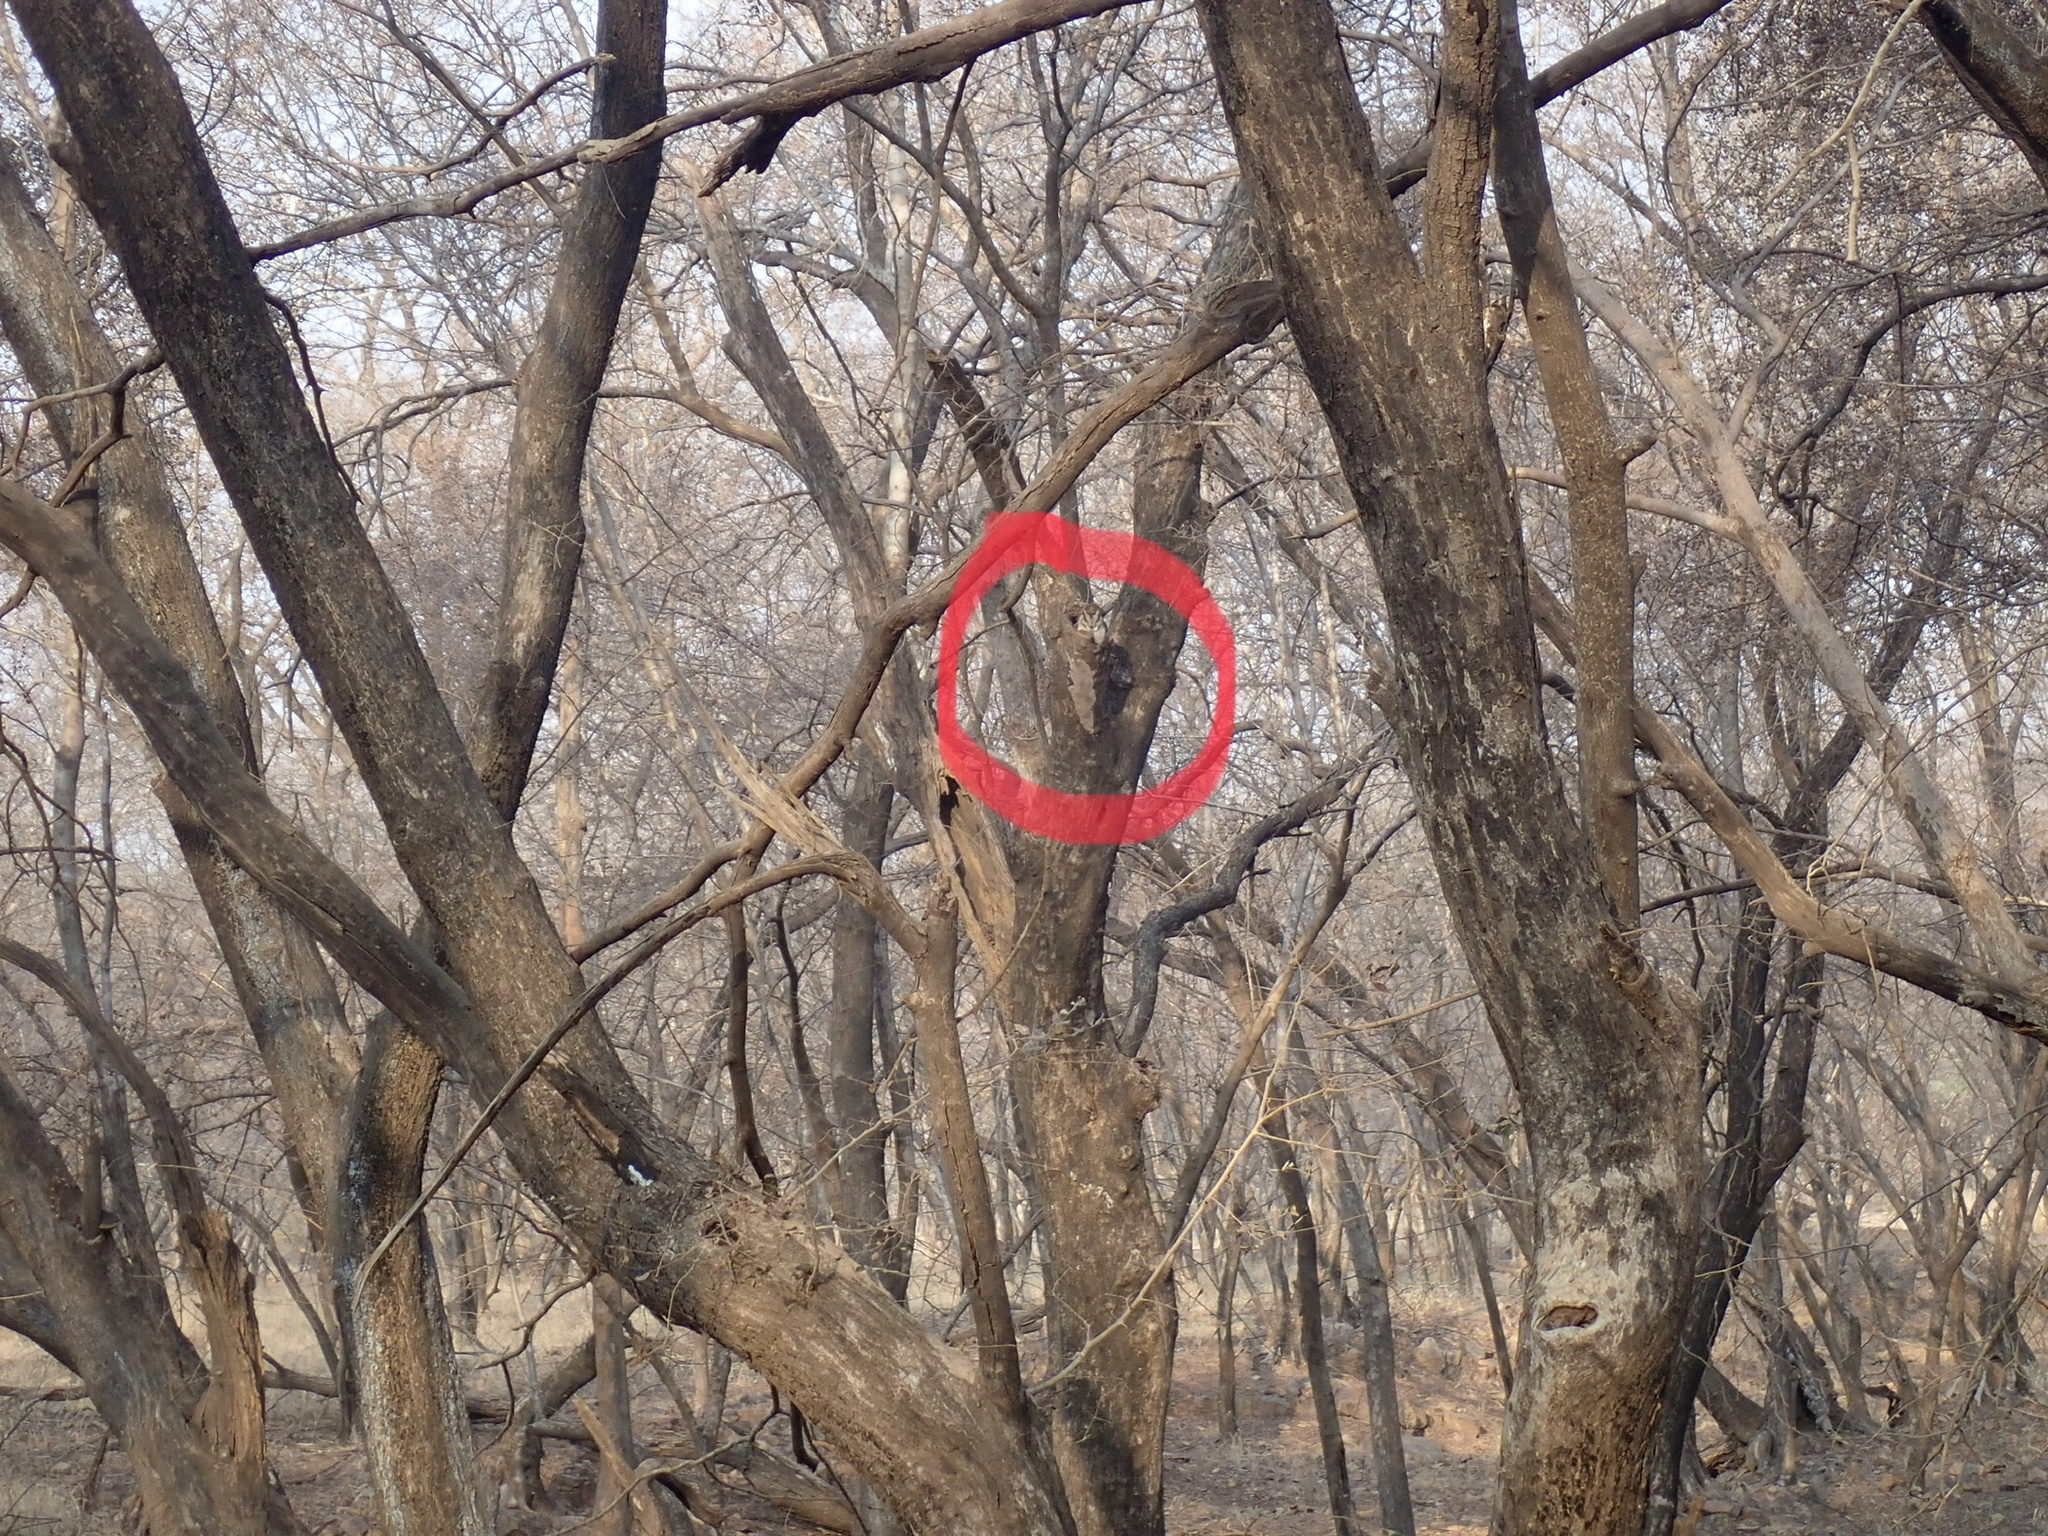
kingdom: Animalia
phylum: Chordata
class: Aves
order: Strigiformes
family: Strigidae
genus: Otus
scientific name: Otus bakkamoena
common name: Indian scops owl
